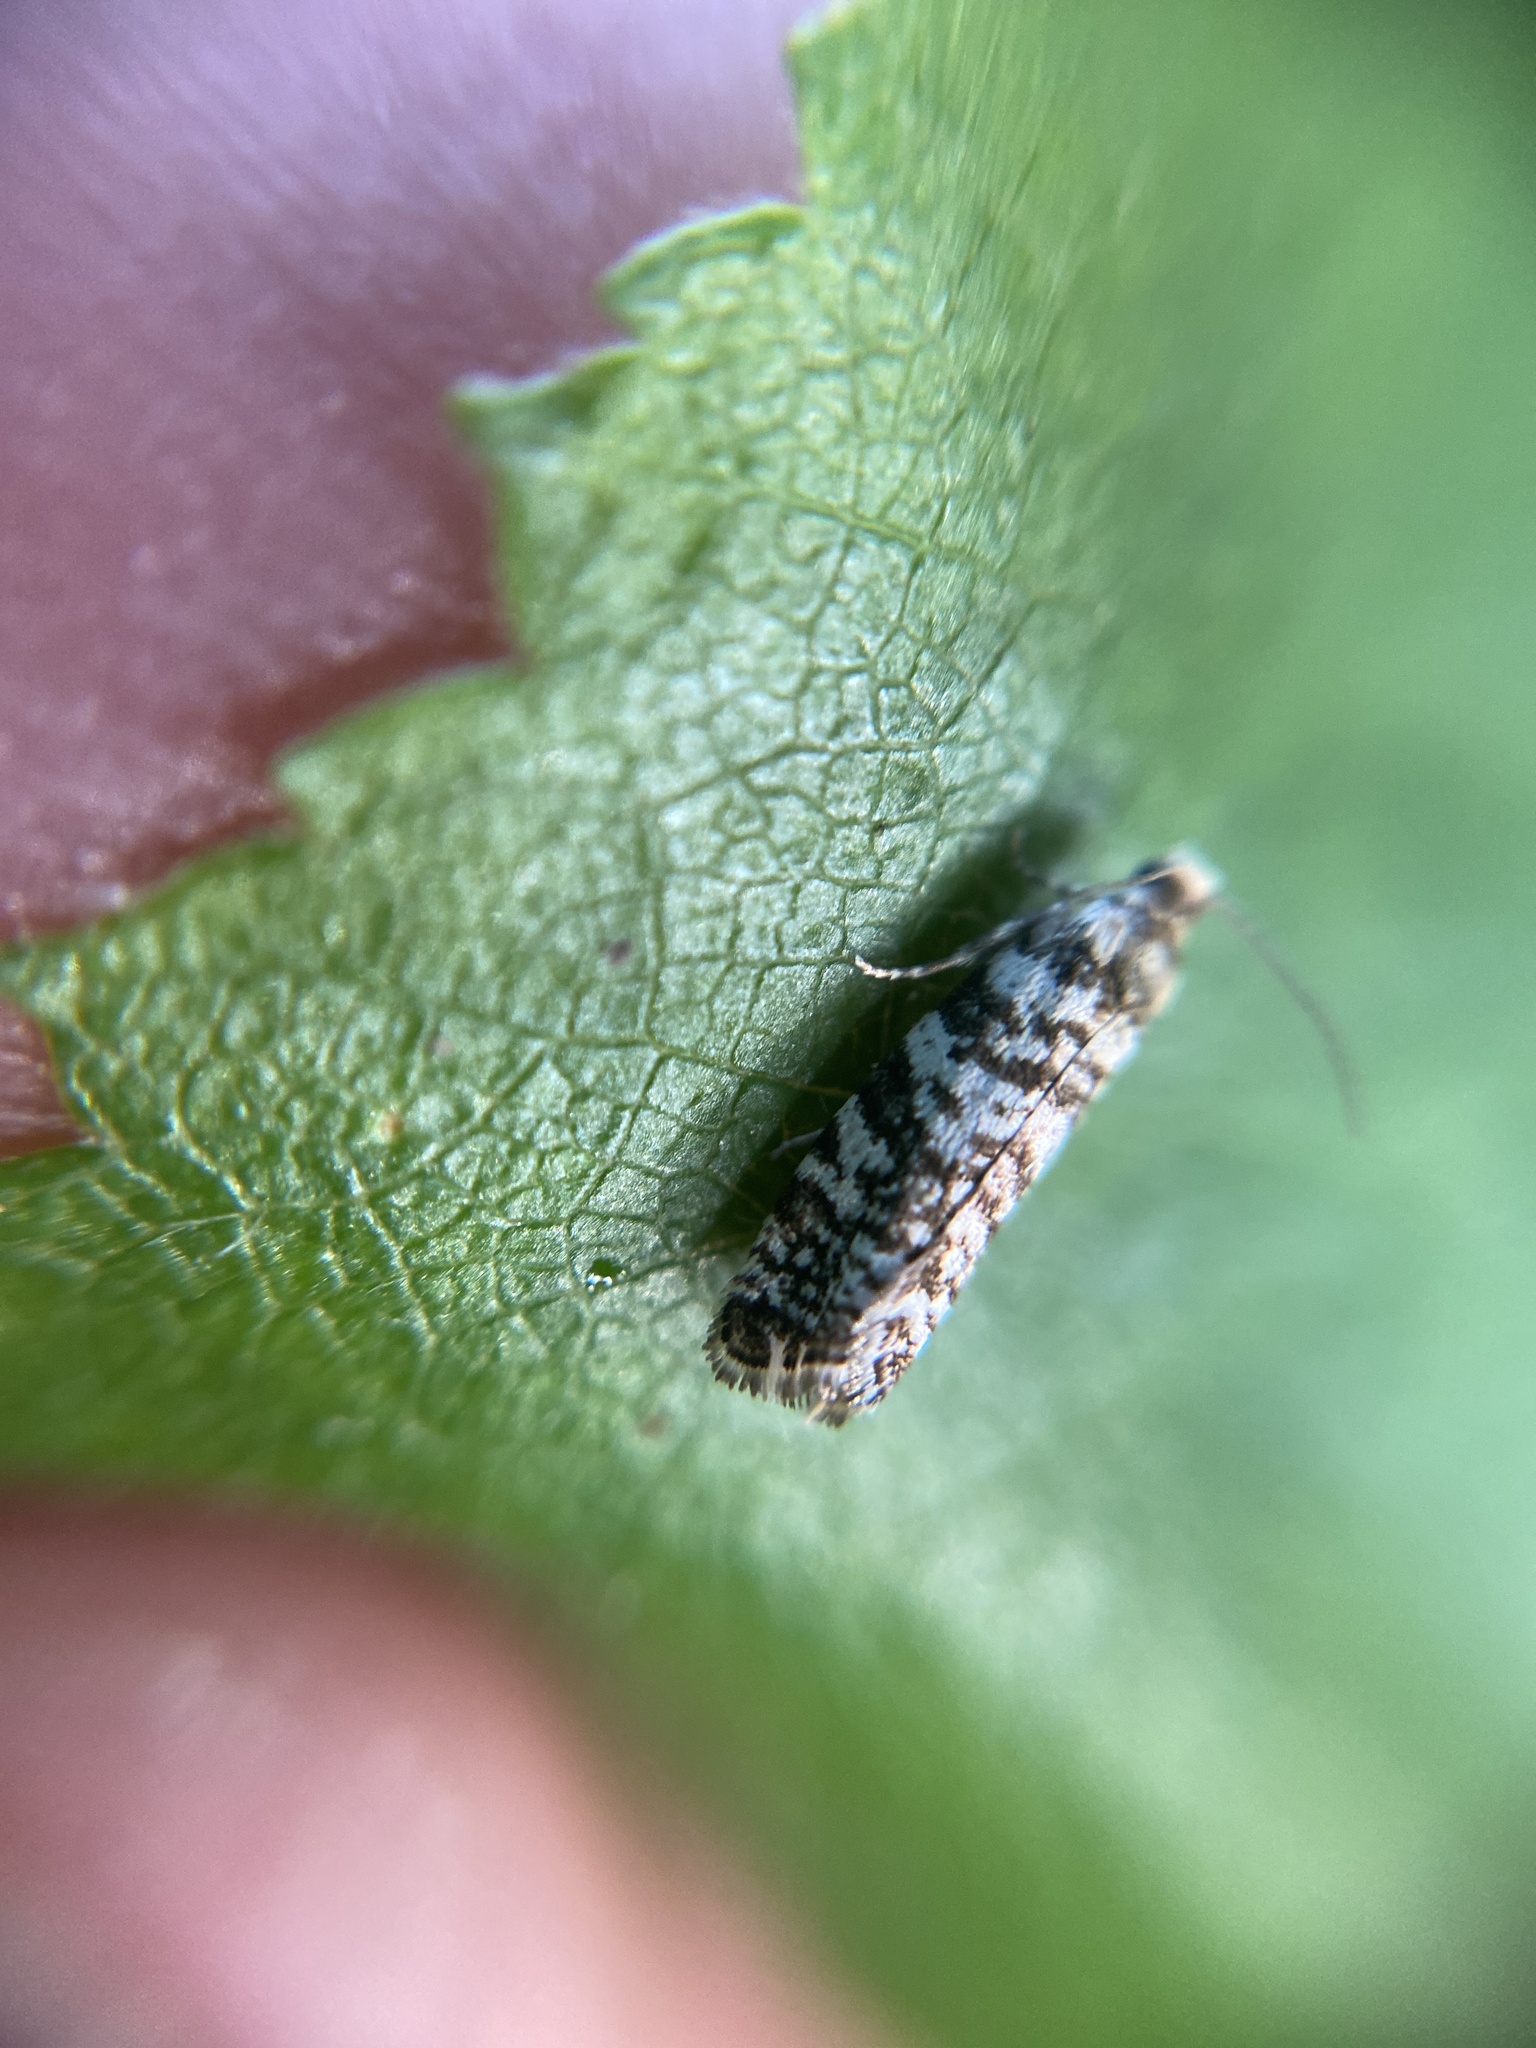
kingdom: Animalia
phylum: Arthropoda
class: Insecta
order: Lepidoptera
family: Tortricidae
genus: Epinotia
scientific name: Epinotia tedella
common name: Common spruce bell
